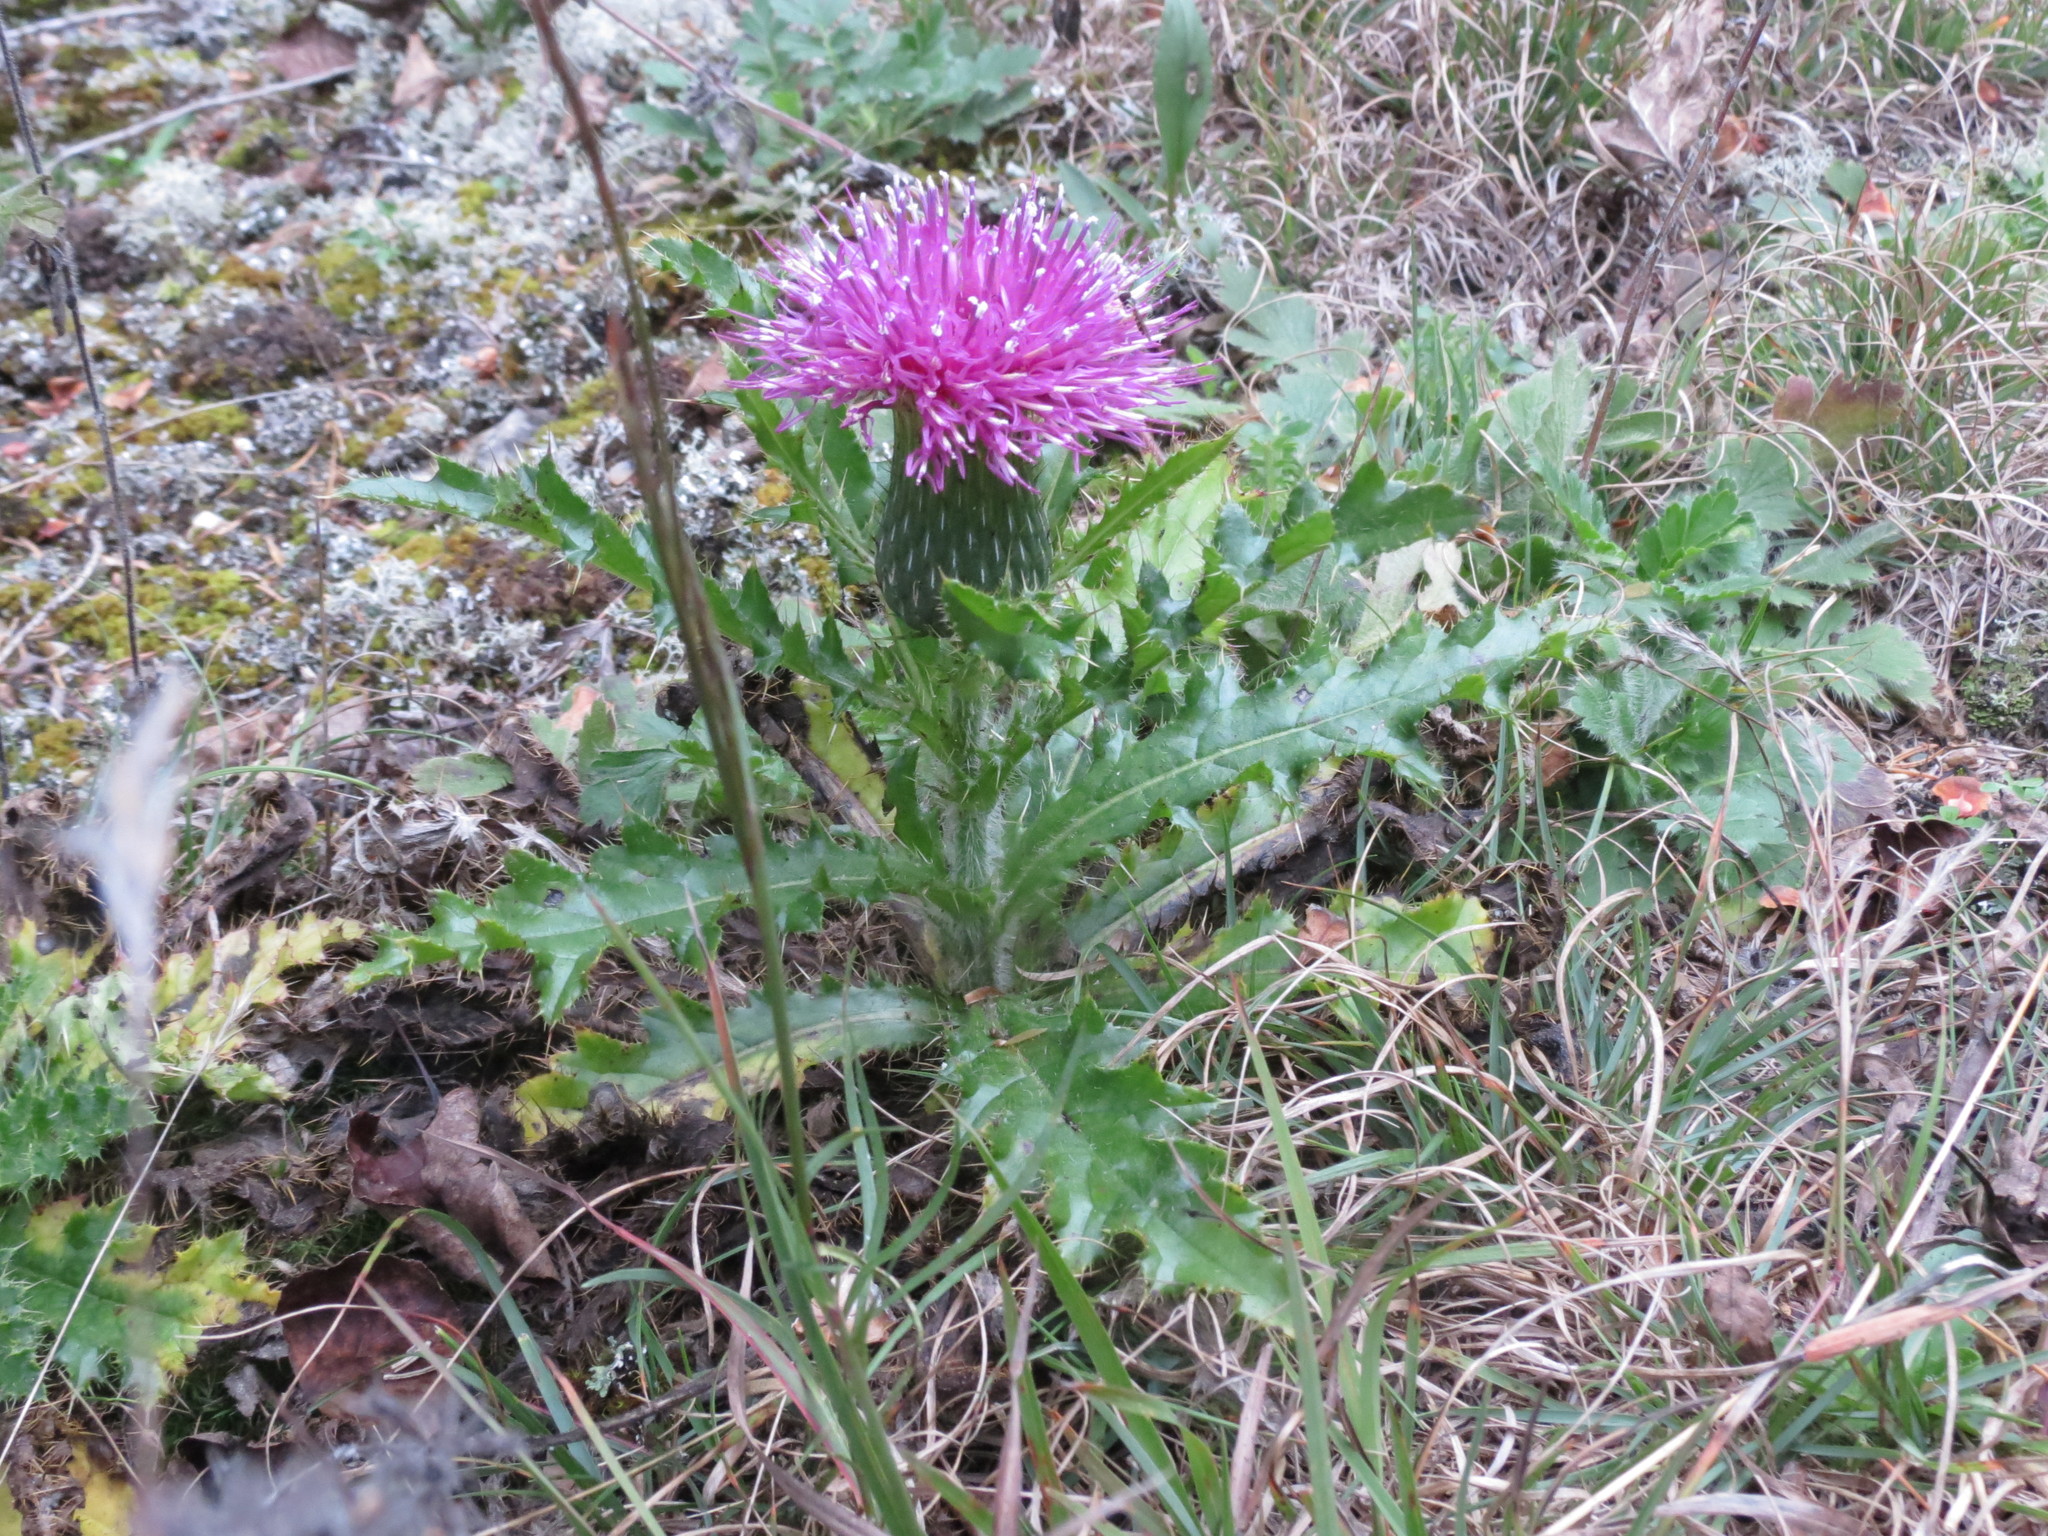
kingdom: Plantae
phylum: Tracheophyta
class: Magnoliopsida
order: Asterales
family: Asteraceae
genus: Cirsium
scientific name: Cirsium pumilum
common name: Pasture thistle
